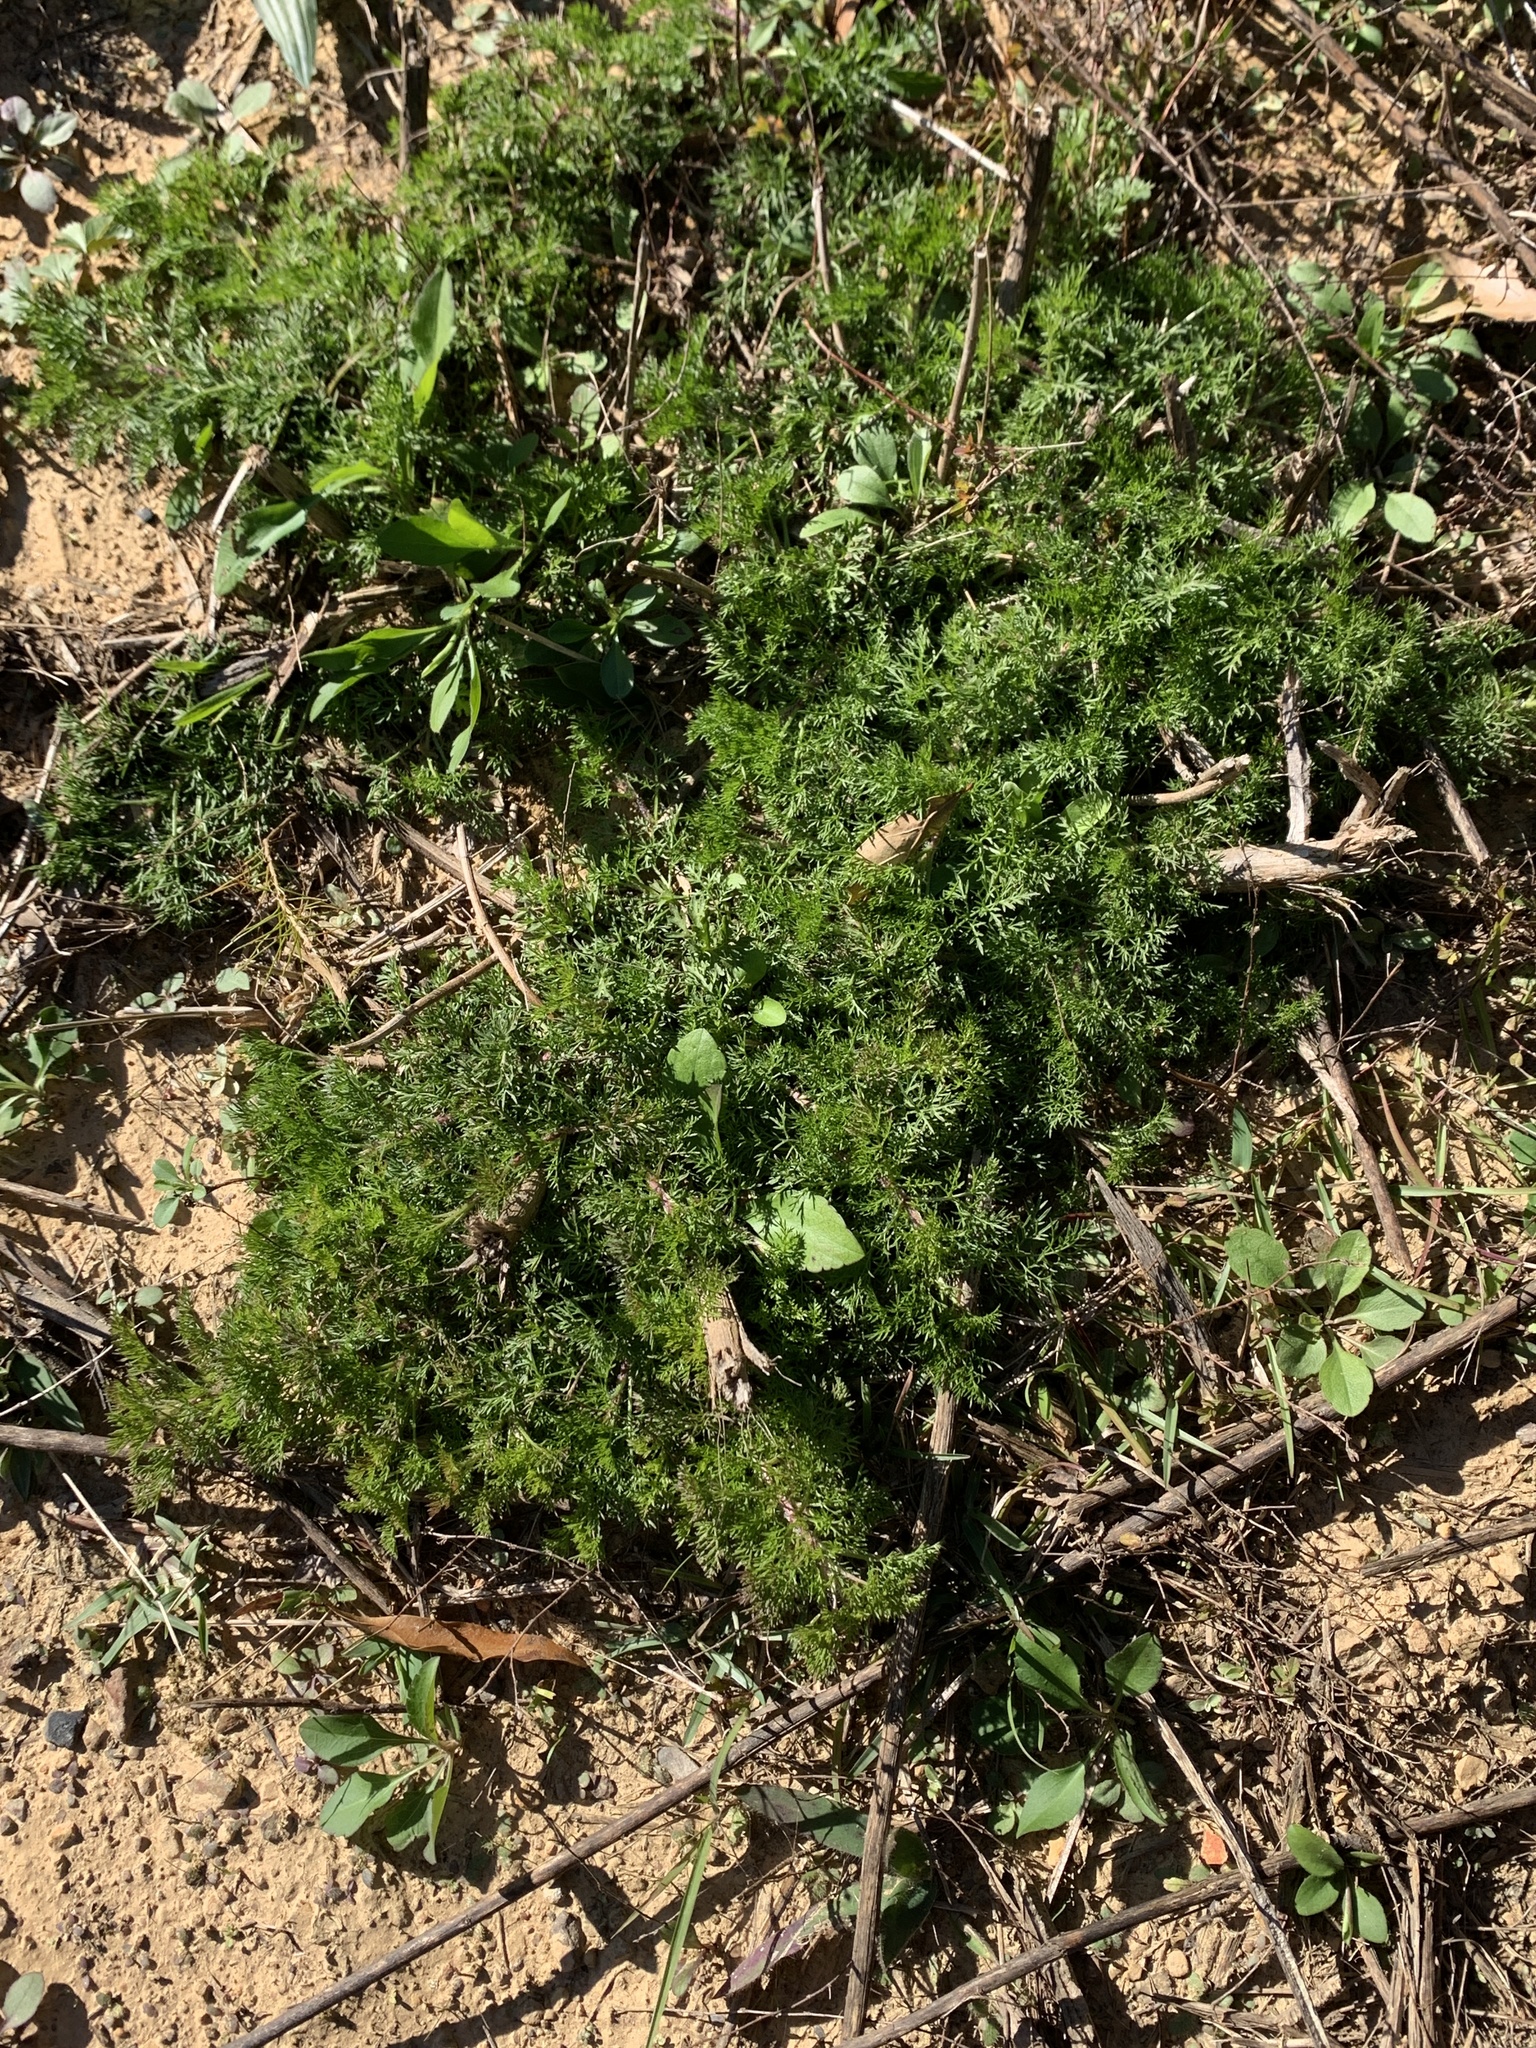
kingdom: Plantae
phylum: Tracheophyta
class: Magnoliopsida
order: Asterales
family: Asteraceae
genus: Eupatorium
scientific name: Eupatorium capillifolium
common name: Dog-fennel
